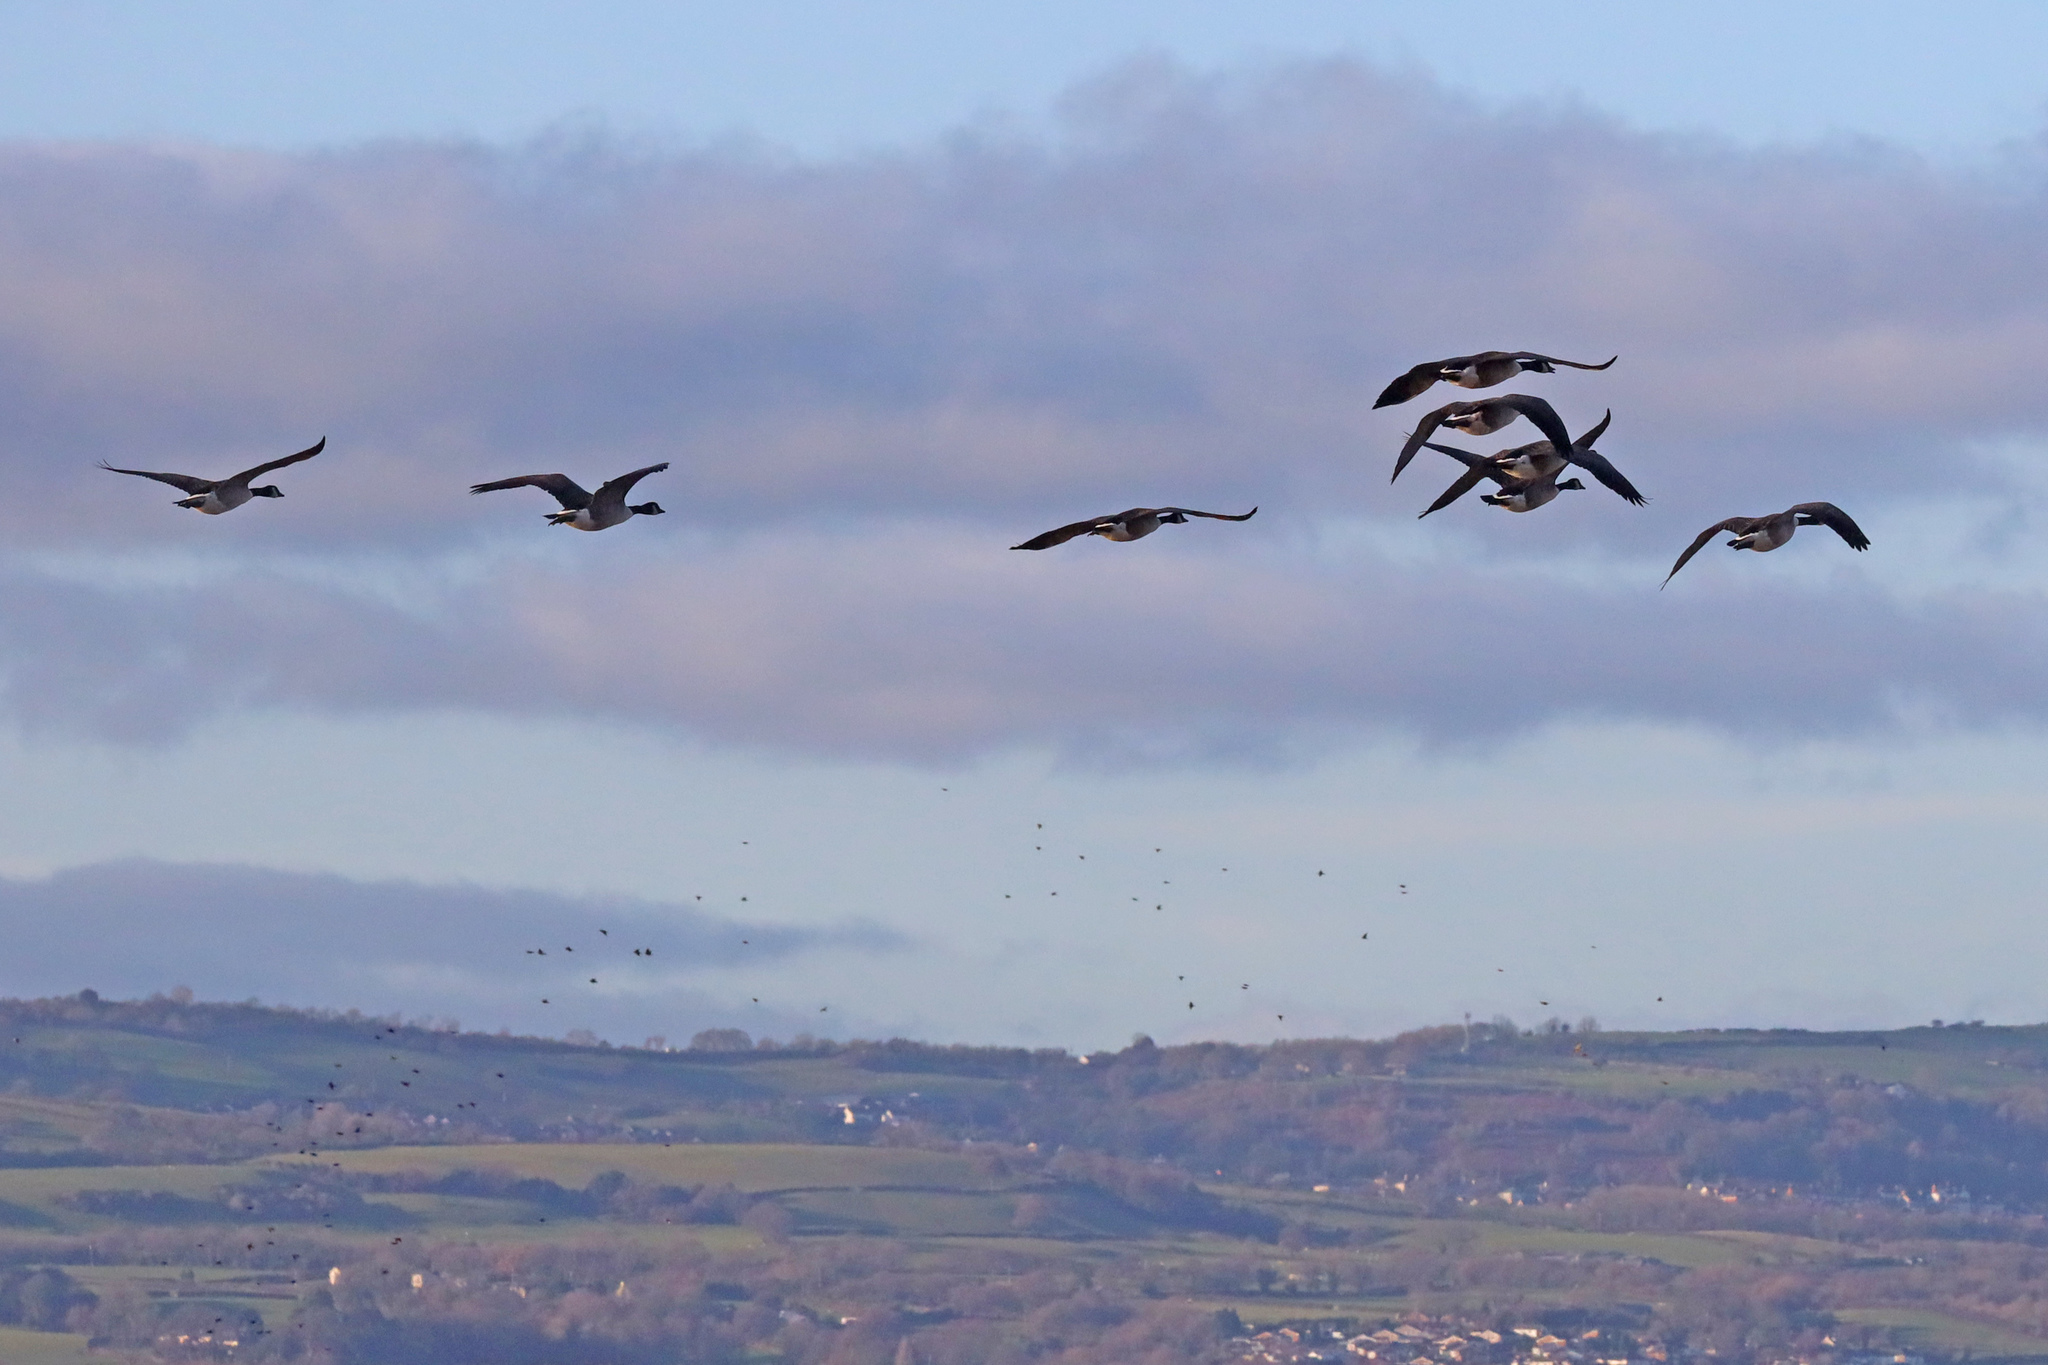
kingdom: Animalia
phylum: Chordata
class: Aves
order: Anseriformes
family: Anatidae
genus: Branta
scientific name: Branta canadensis
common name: Canada goose
